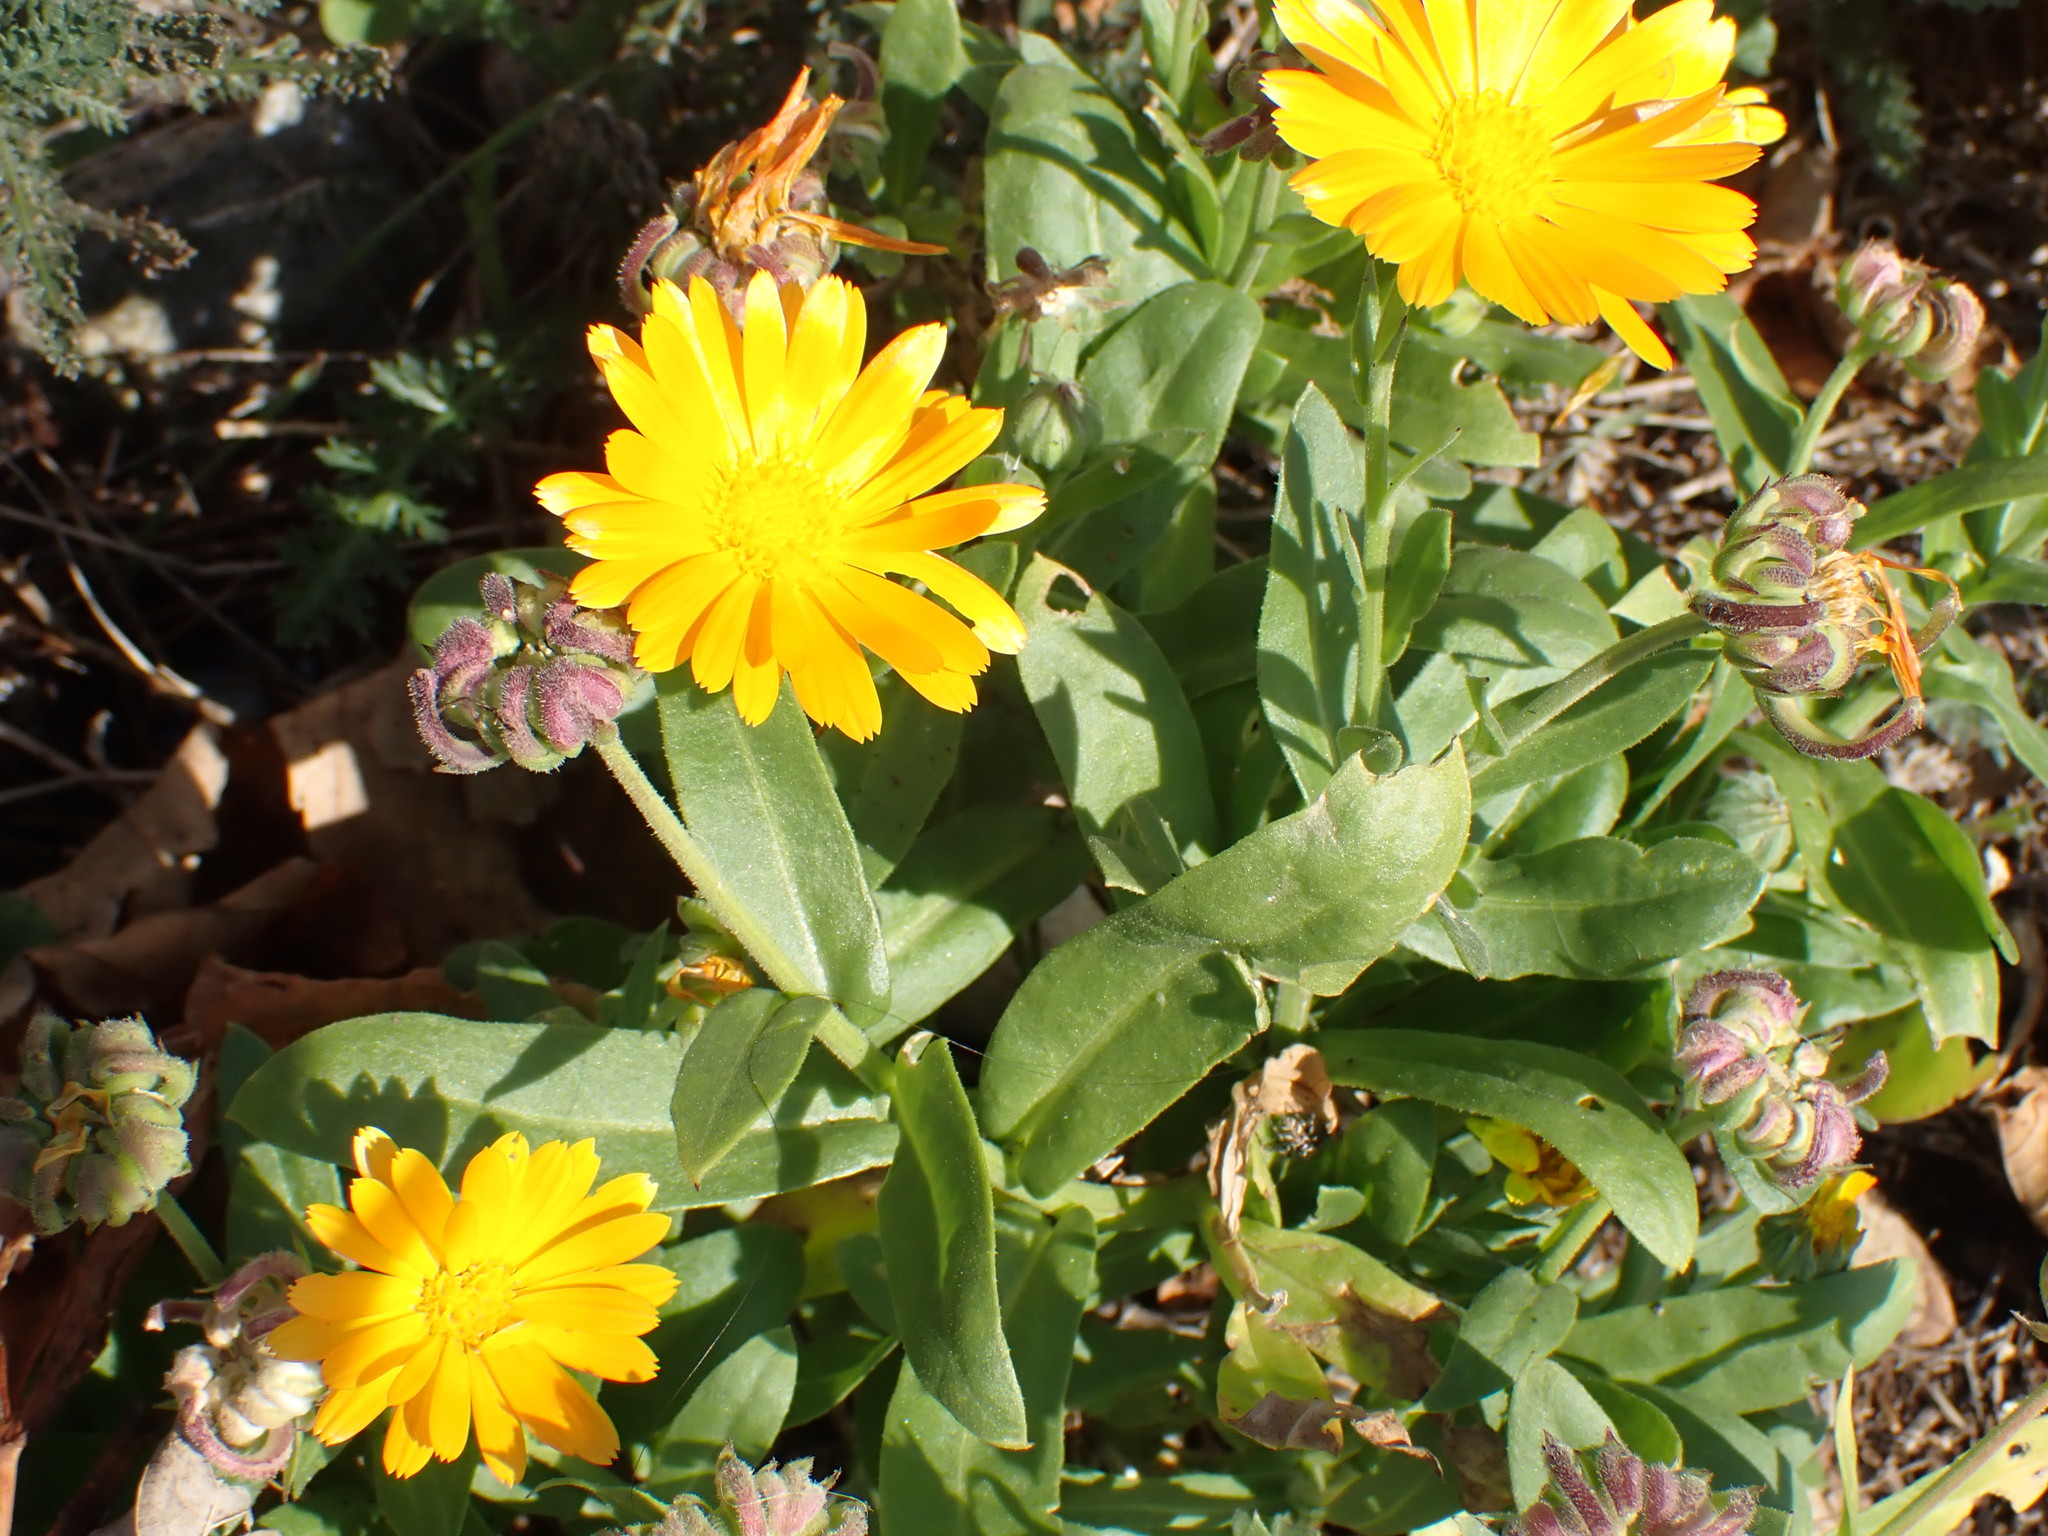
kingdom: Plantae
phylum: Tracheophyta
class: Magnoliopsida
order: Asterales
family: Asteraceae
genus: Calendula
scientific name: Calendula officinalis
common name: Pot marigold
